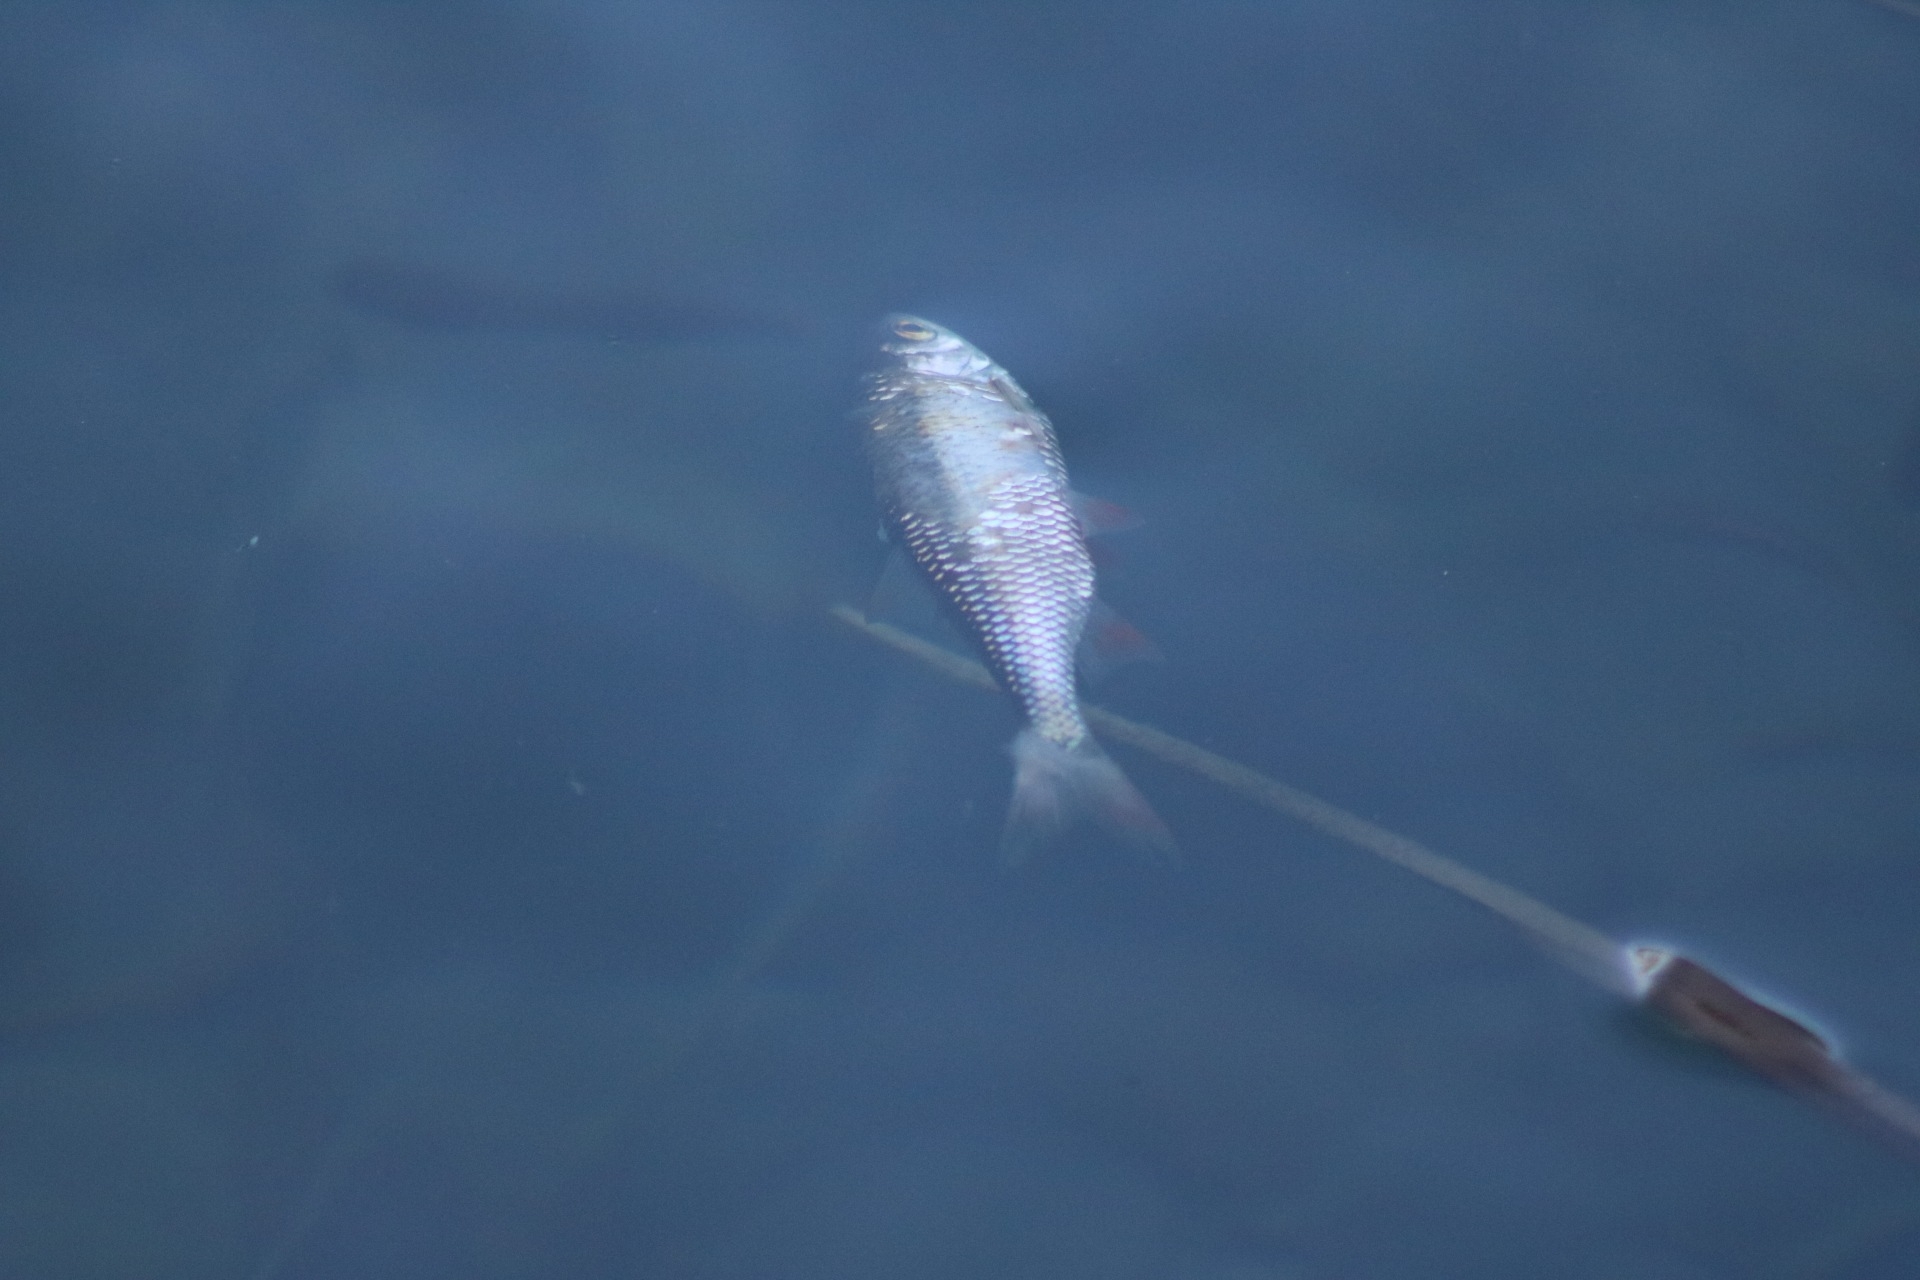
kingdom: Animalia
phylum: Chordata
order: Cypriniformes
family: Cyprinidae
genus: Scardinius
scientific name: Scardinius erythrophthalmus
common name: Rudd
